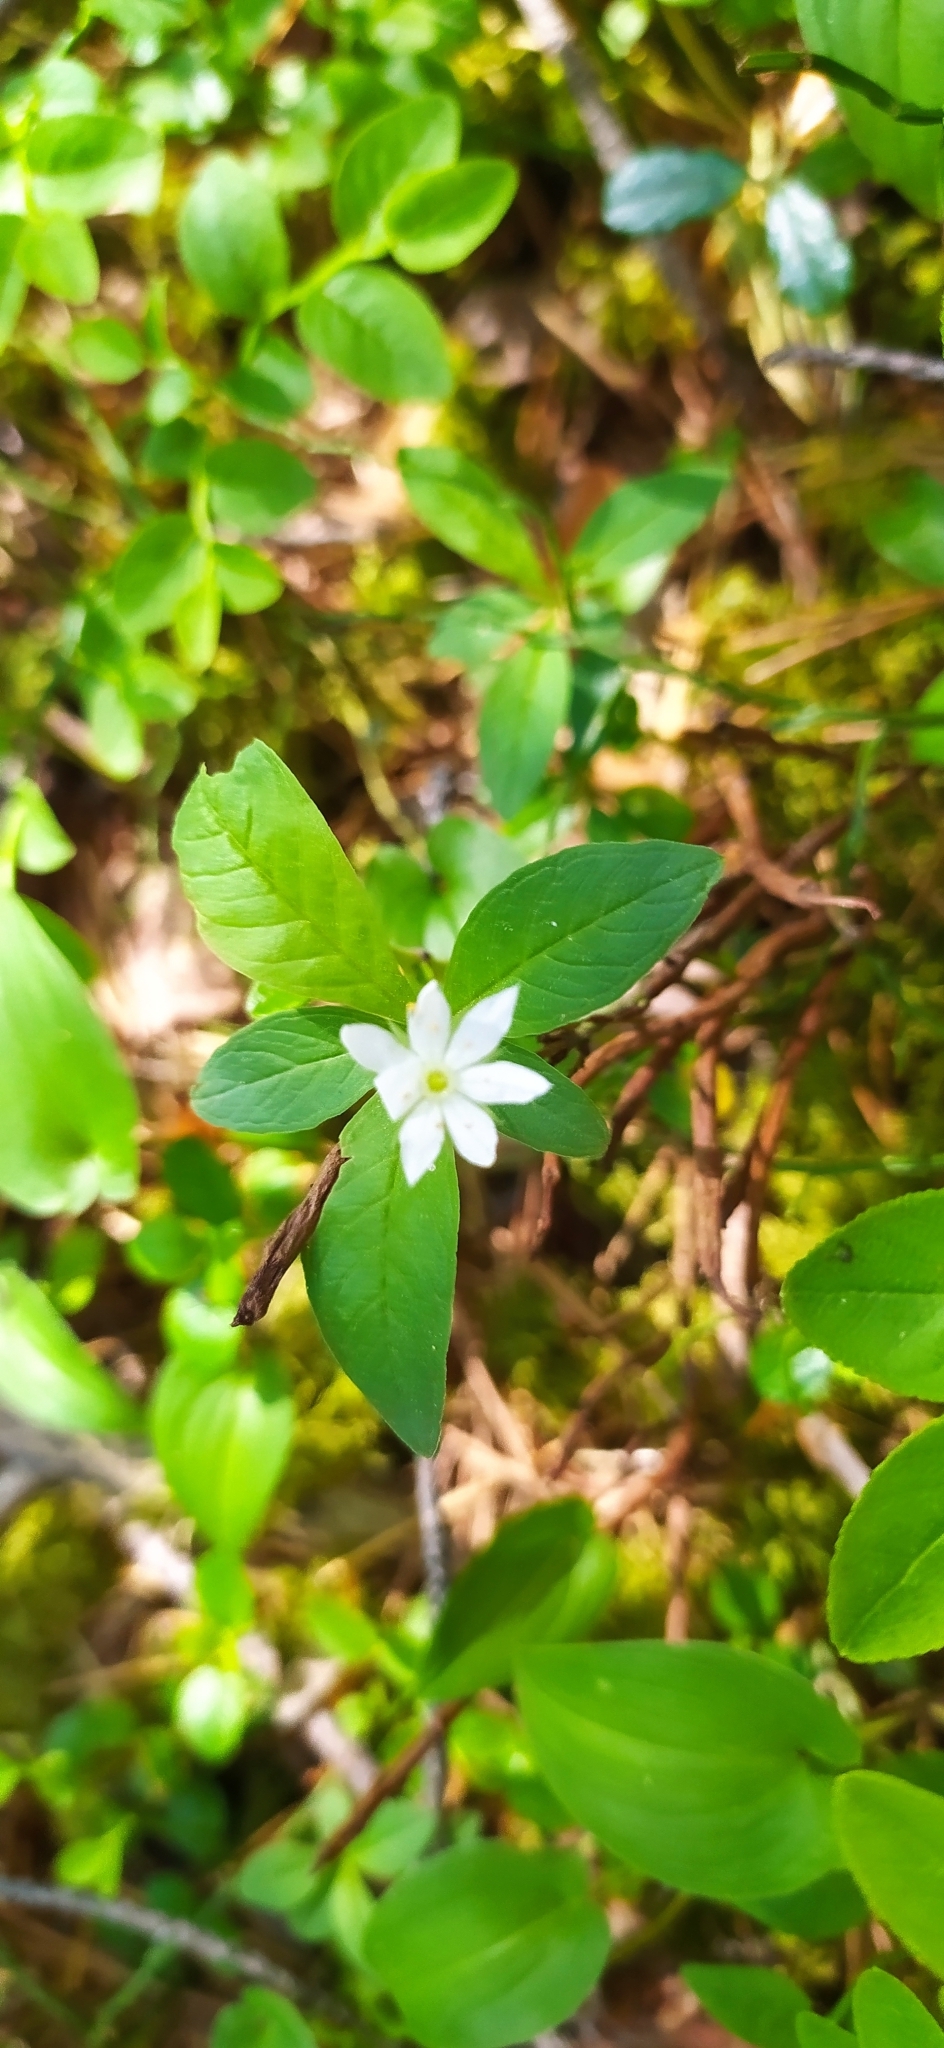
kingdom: Plantae
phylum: Tracheophyta
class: Magnoliopsida
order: Ericales
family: Primulaceae
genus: Lysimachia
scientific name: Lysimachia europaea
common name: Arctic starflower
